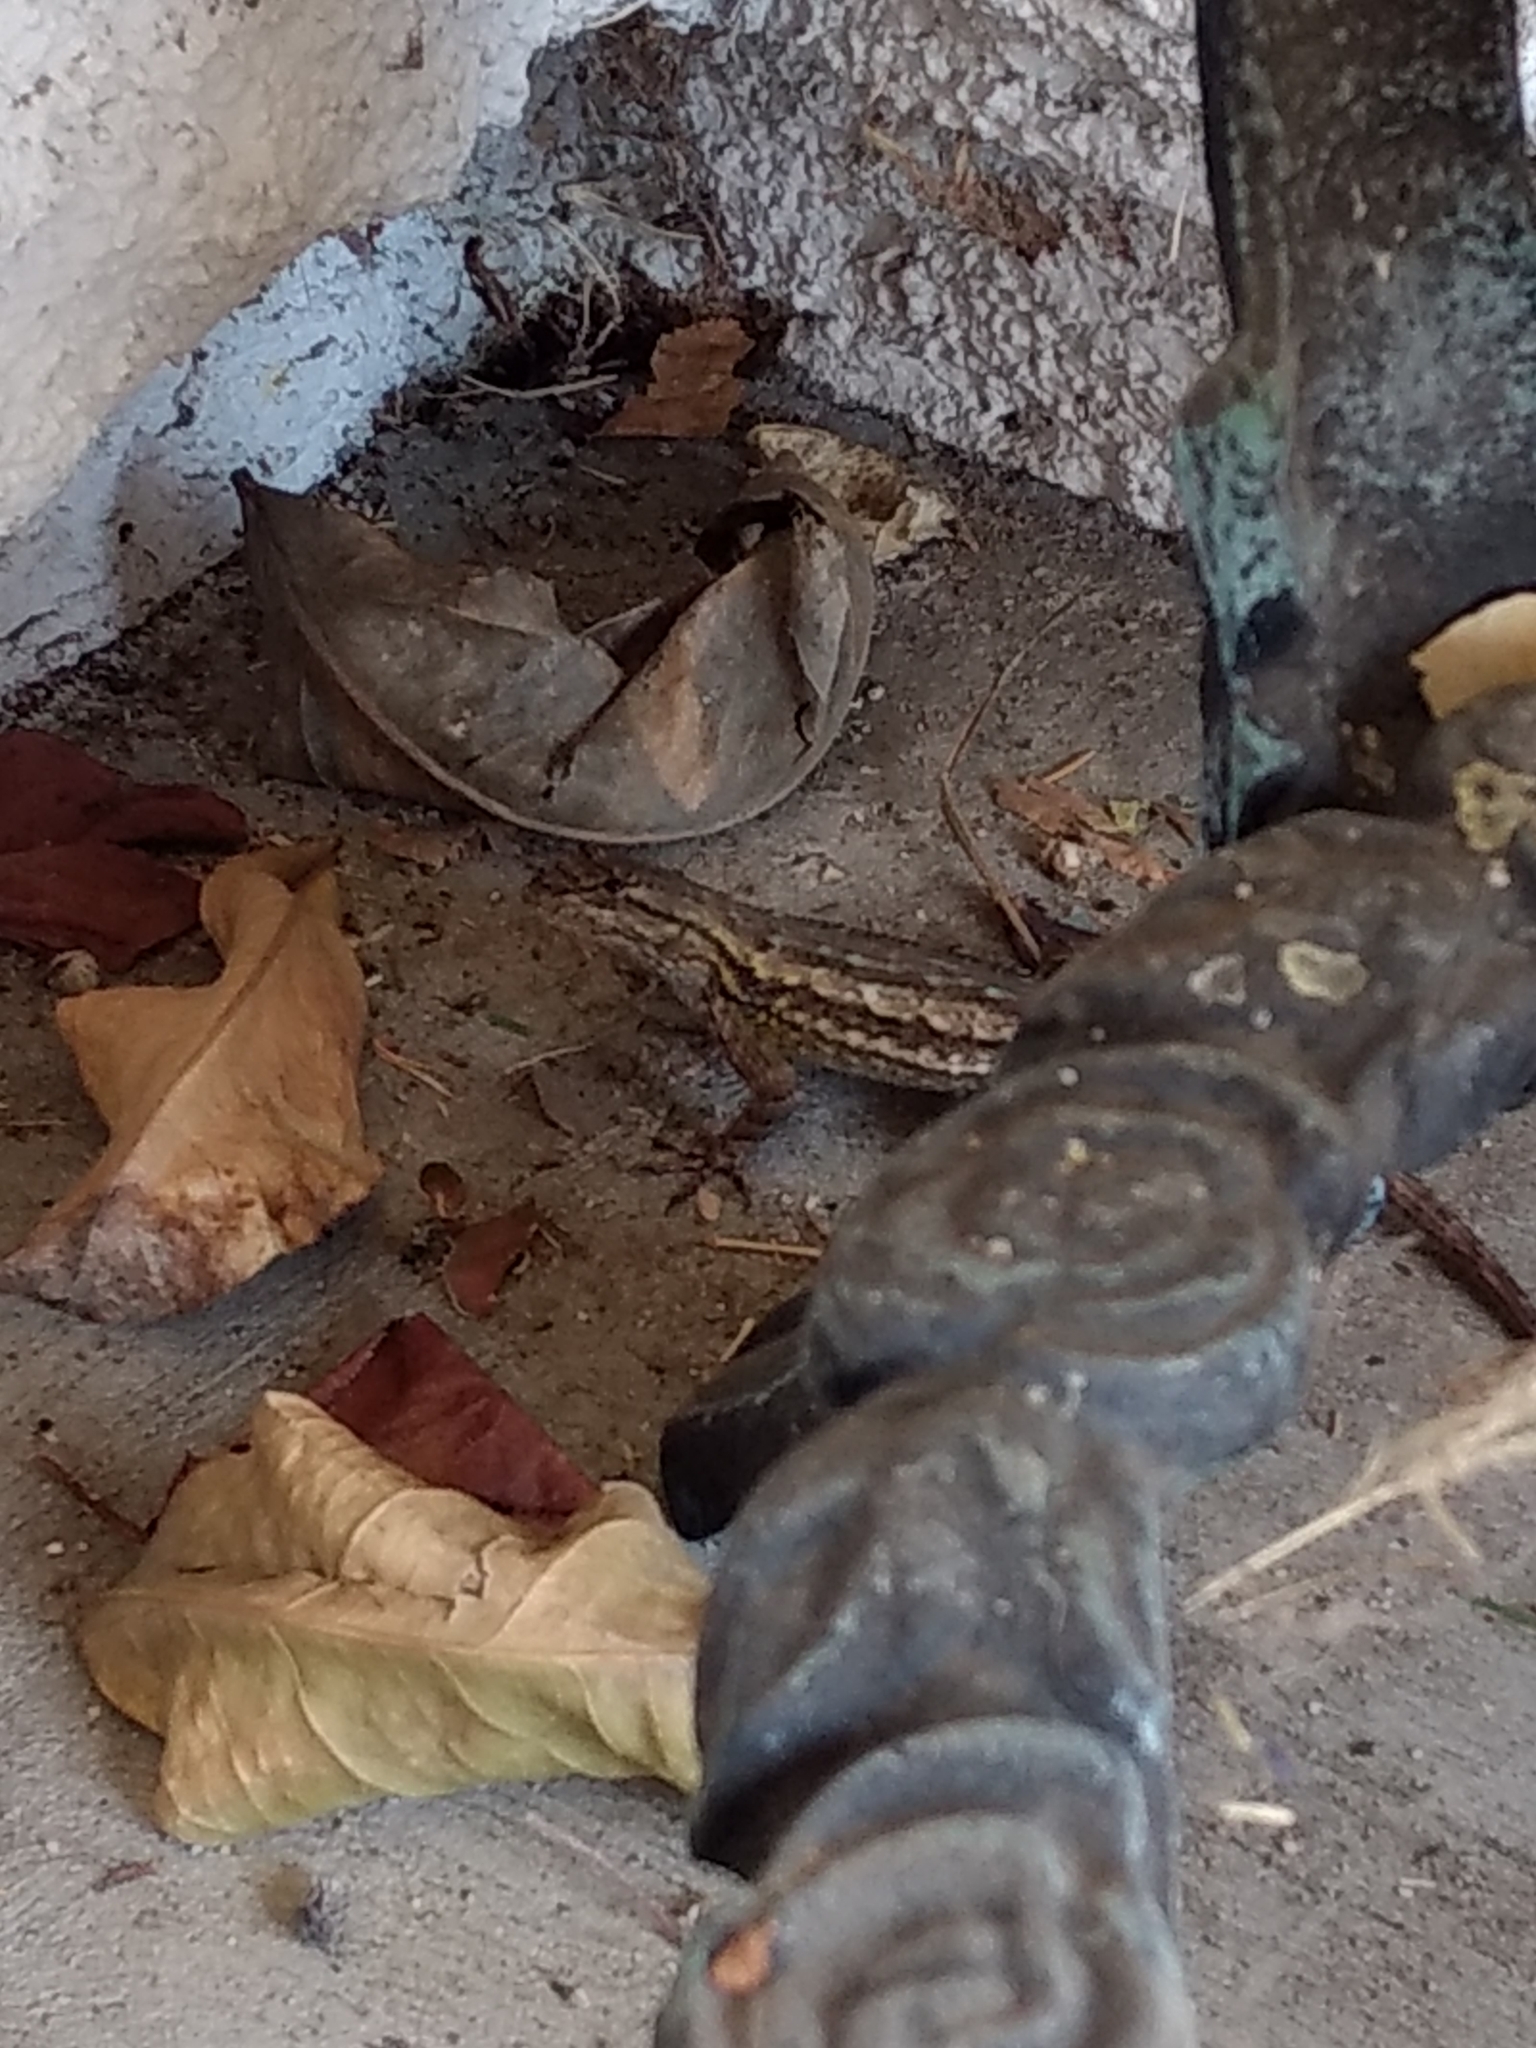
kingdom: Animalia
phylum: Chordata
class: Squamata
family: Phrynosomatidae
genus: Sceloporus
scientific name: Sceloporus occidentalis
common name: Western fence lizard
